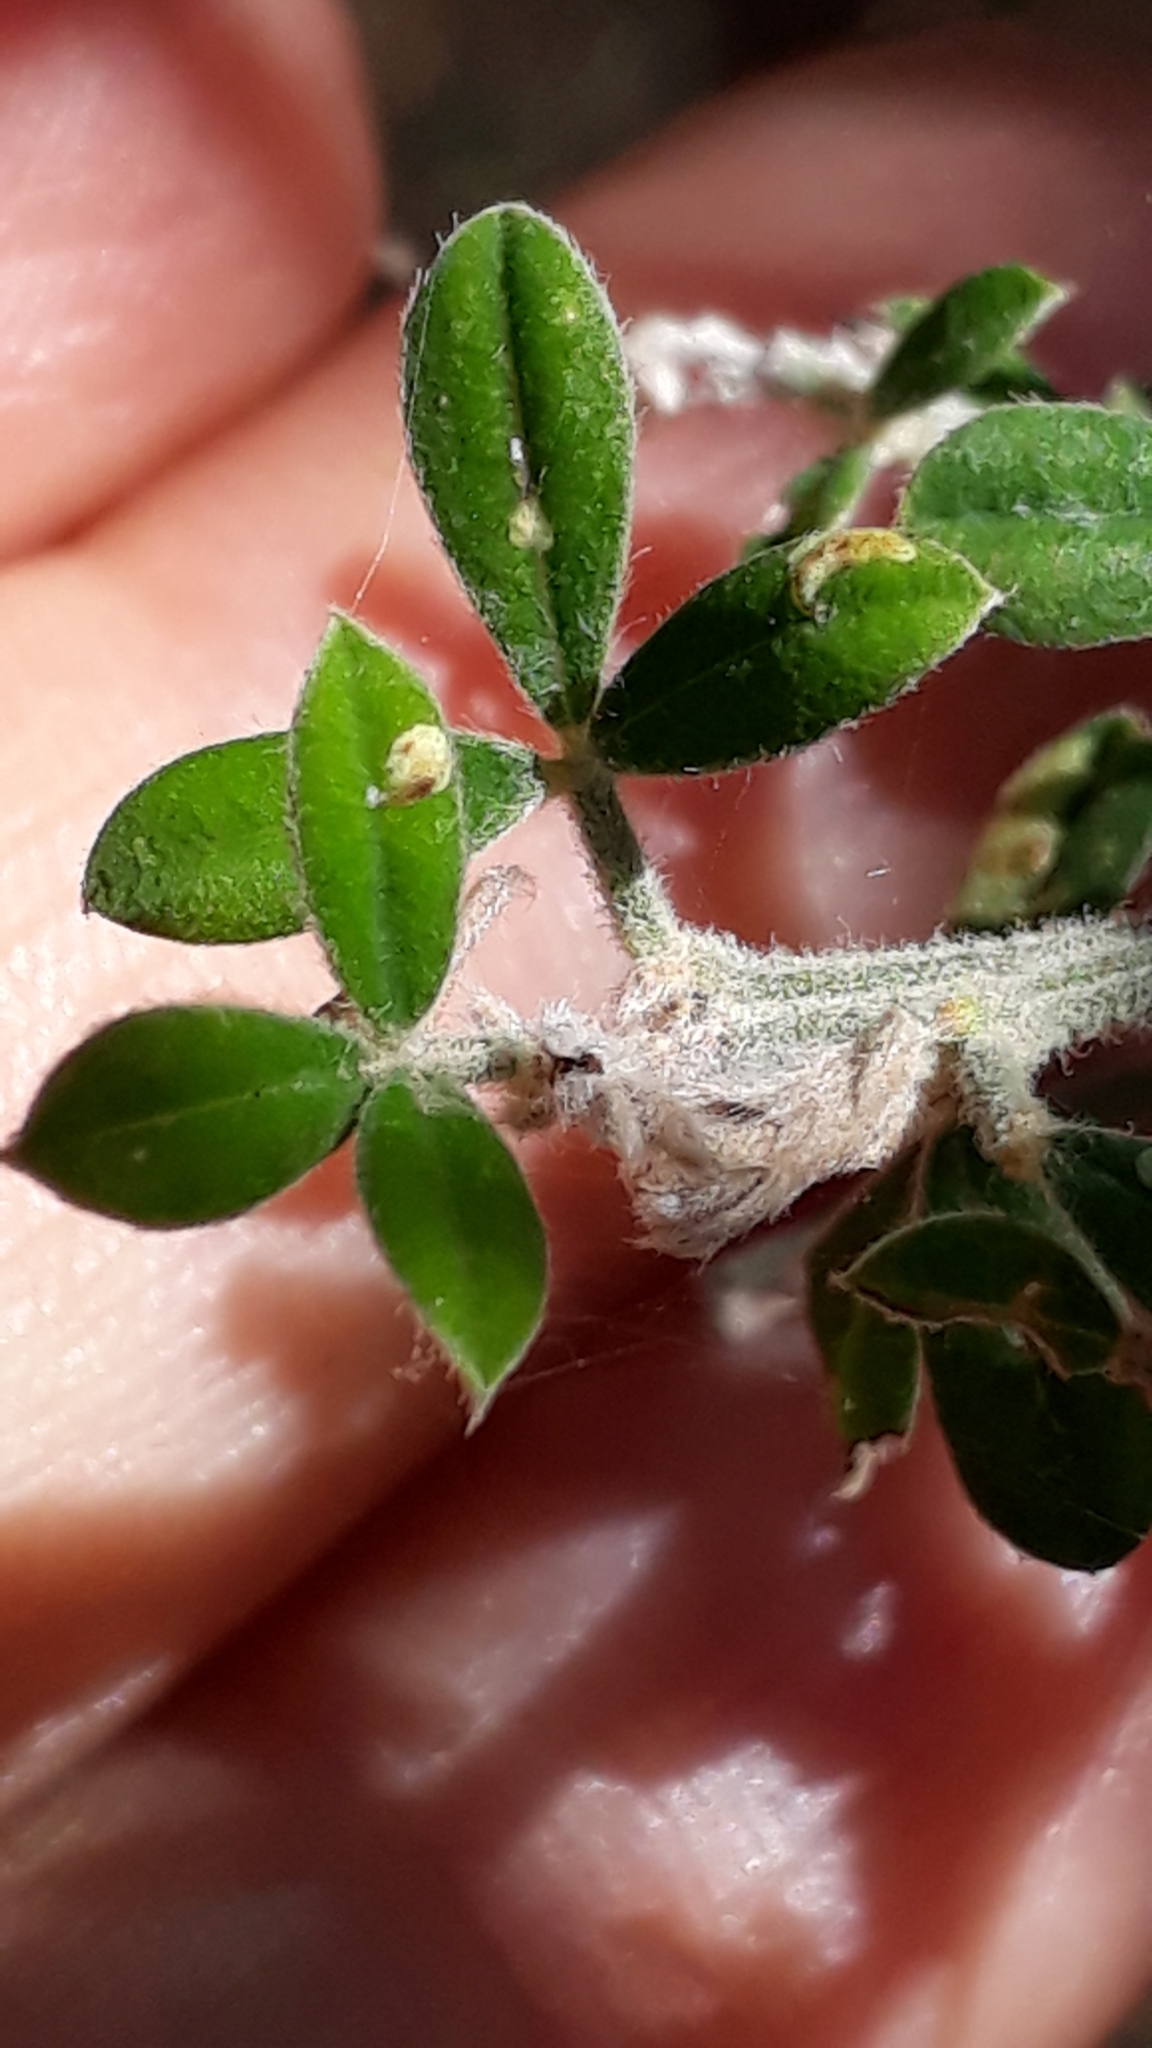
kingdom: Plantae
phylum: Tracheophyta
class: Magnoliopsida
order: Fabales
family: Fabaceae
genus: Genista
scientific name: Genista canariensis
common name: Canary broom
